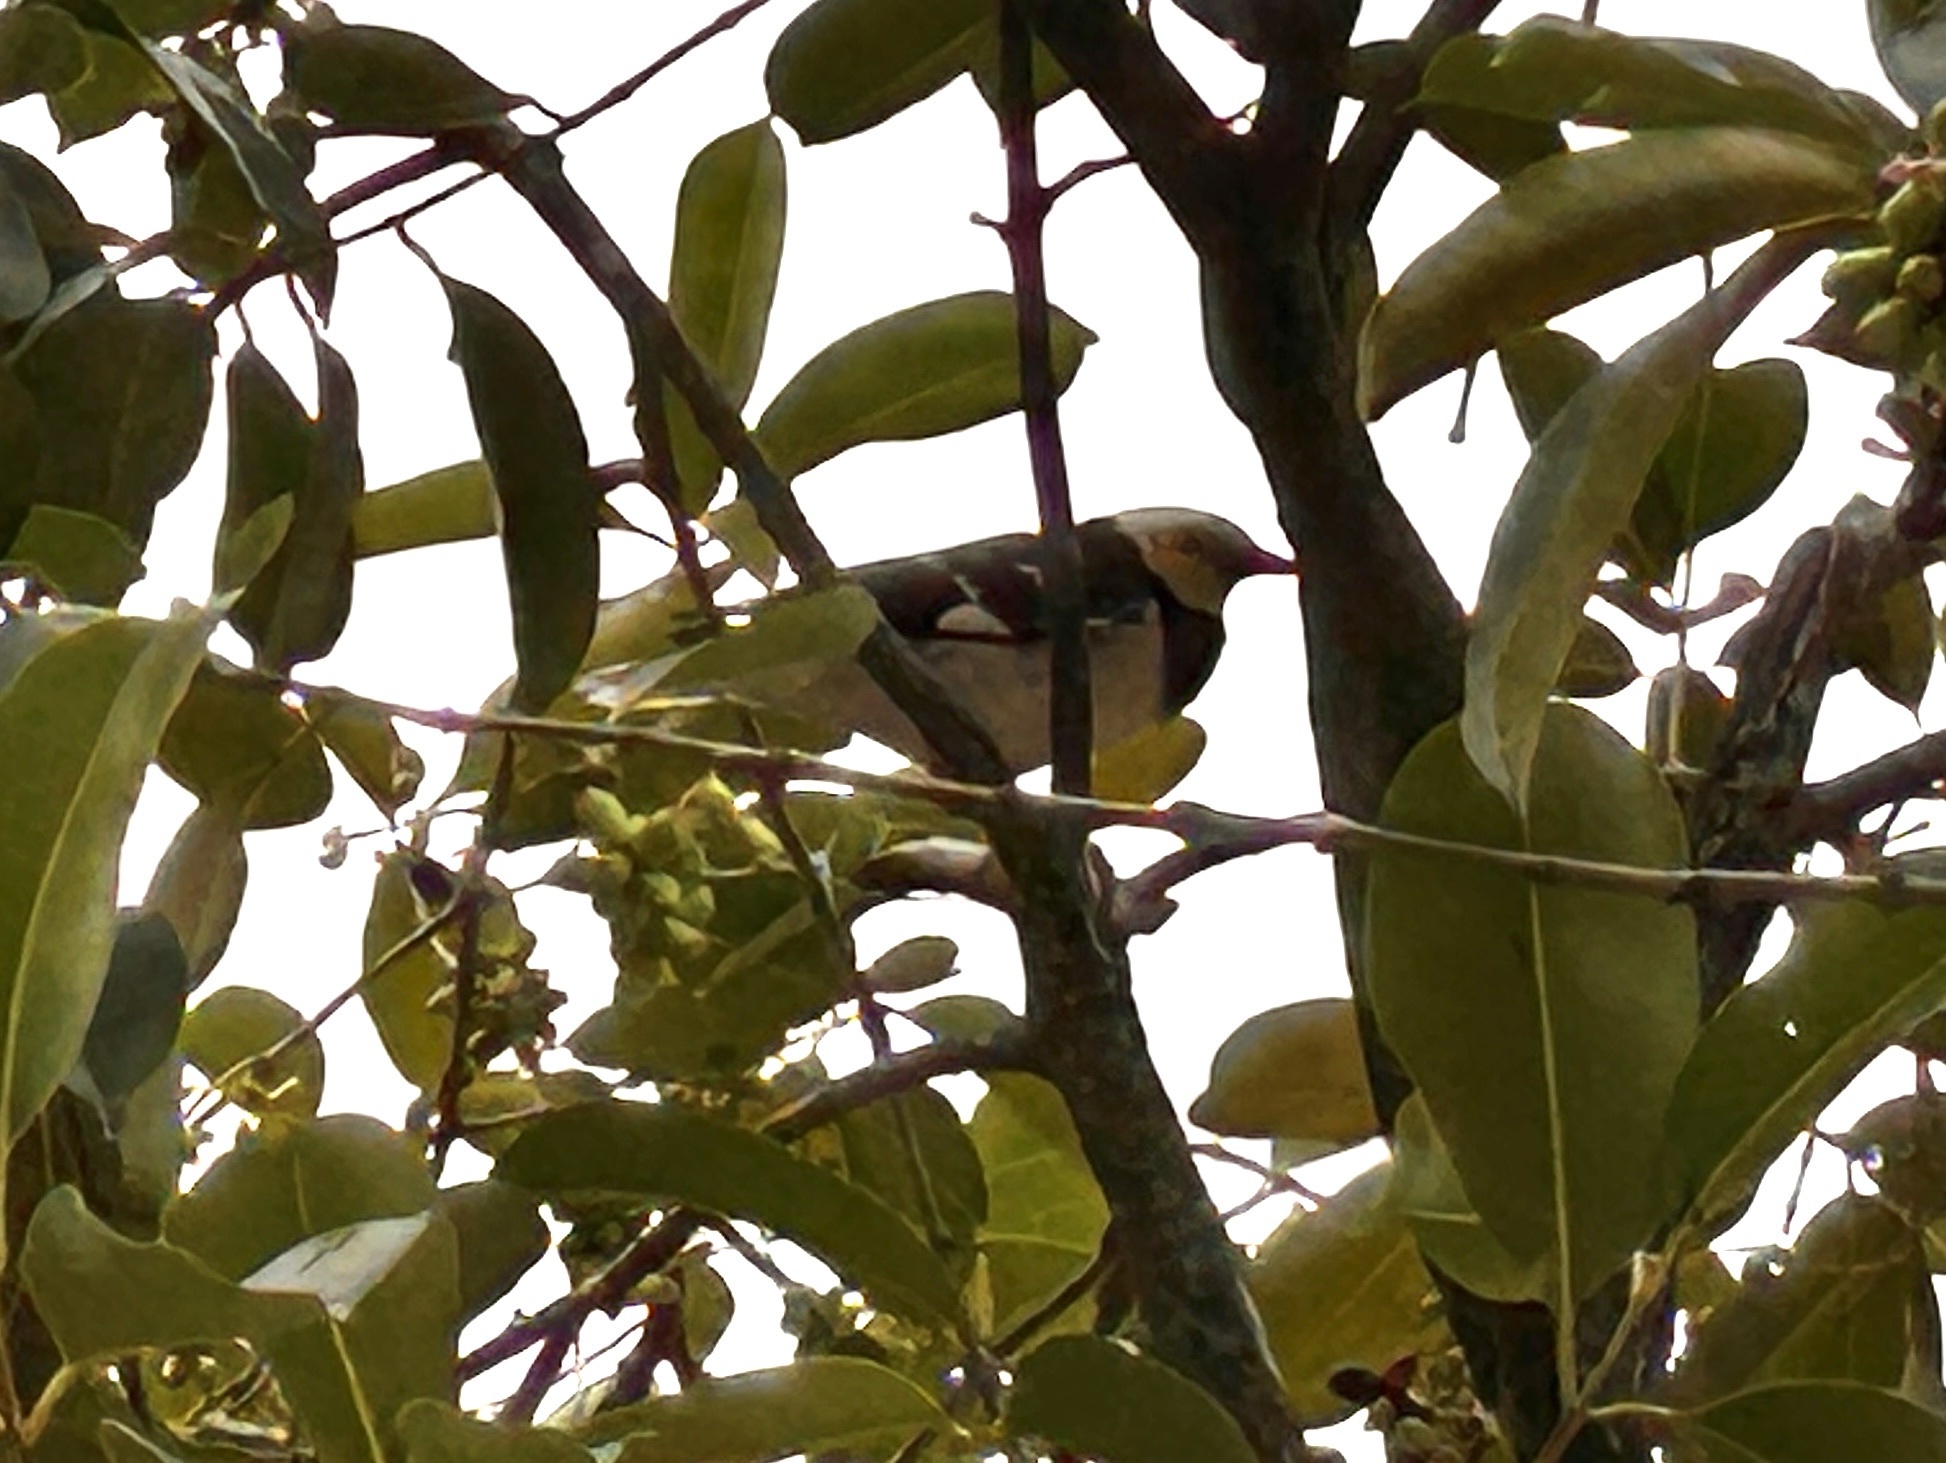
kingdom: Animalia
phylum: Chordata
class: Aves
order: Passeriformes
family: Sturnidae
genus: Gracupica
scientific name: Gracupica nigricollis
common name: Black-collared starling
